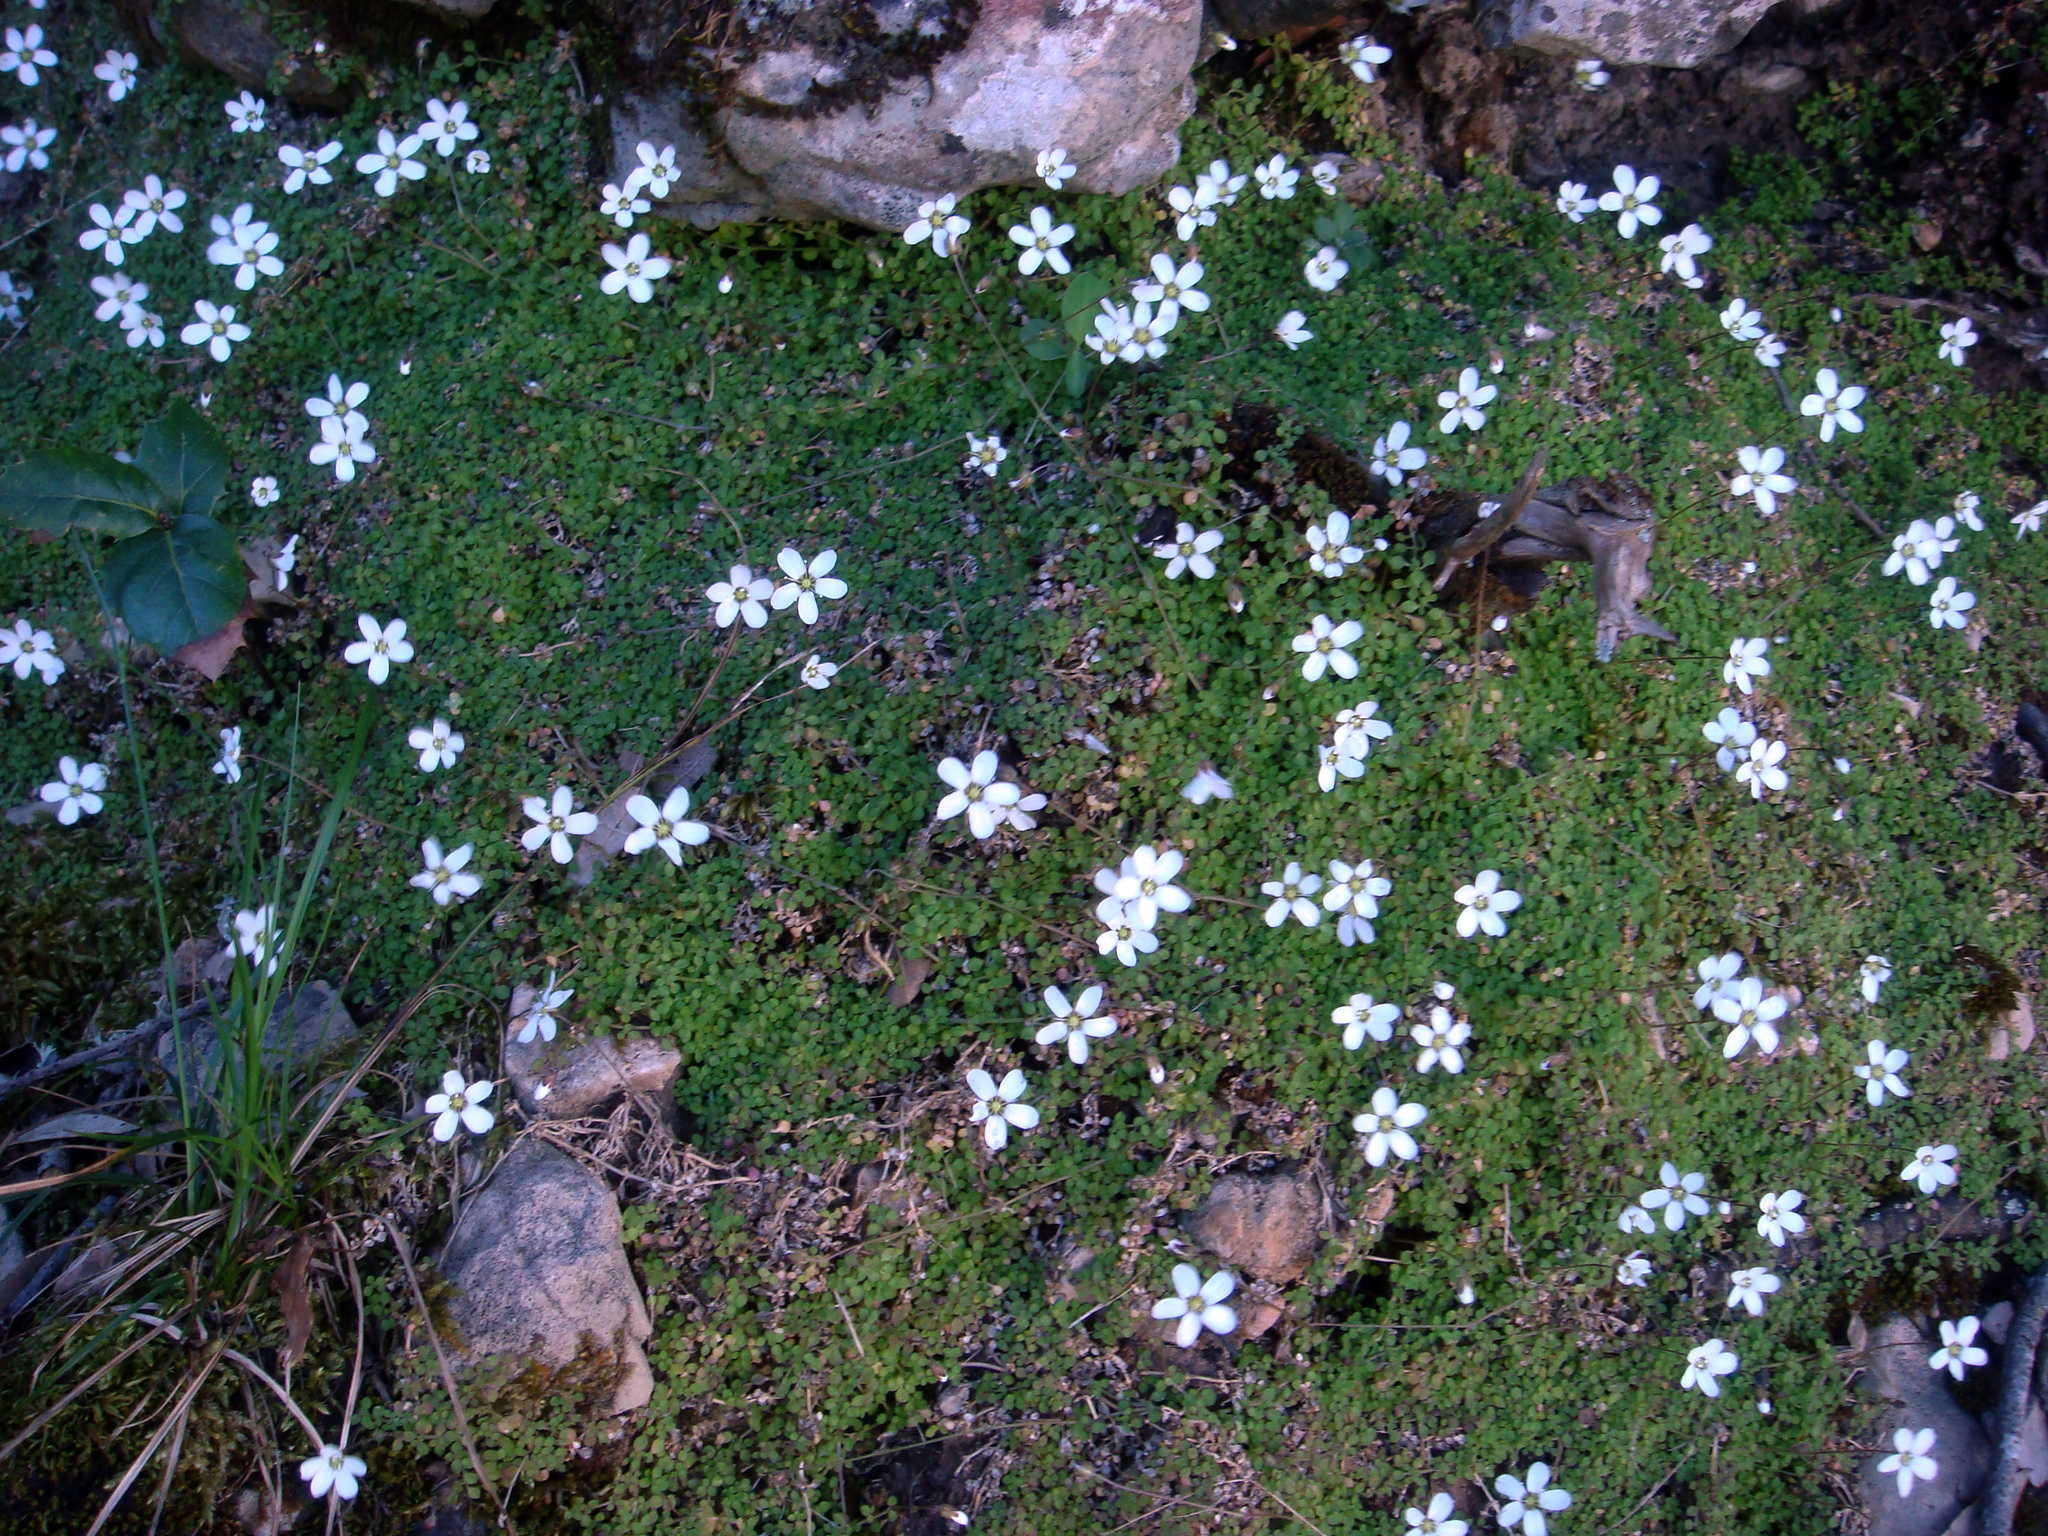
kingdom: Plantae
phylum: Tracheophyta
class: Magnoliopsida
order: Caryophyllales
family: Caryophyllaceae
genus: Arenaria
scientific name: Arenaria balearica
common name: Mossy sandwort
